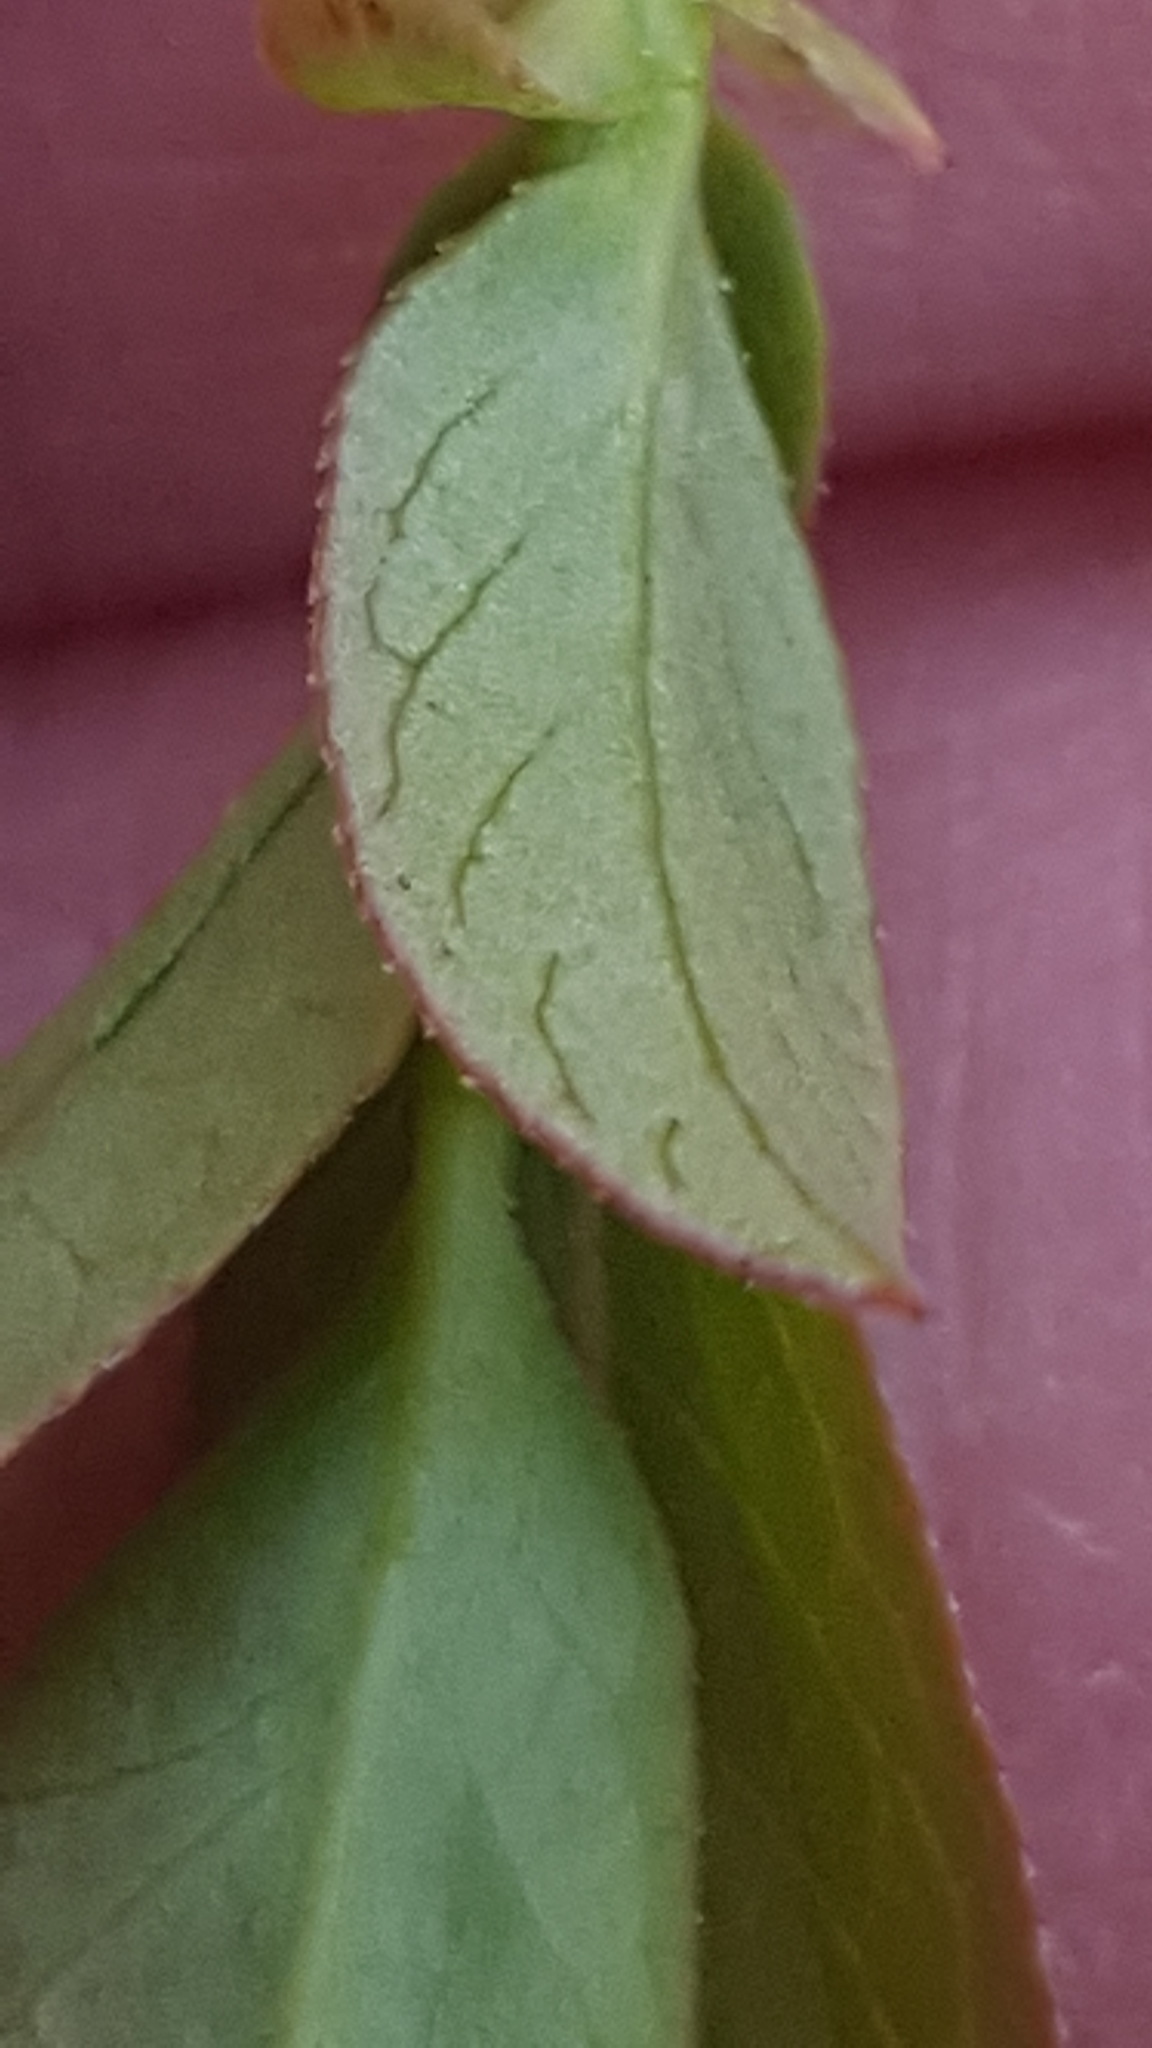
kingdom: Plantae
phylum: Tracheophyta
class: Magnoliopsida
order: Ericales
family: Ericaceae
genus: Vaccinium
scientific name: Vaccinium angustifolium
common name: Early lowbush blueberry
